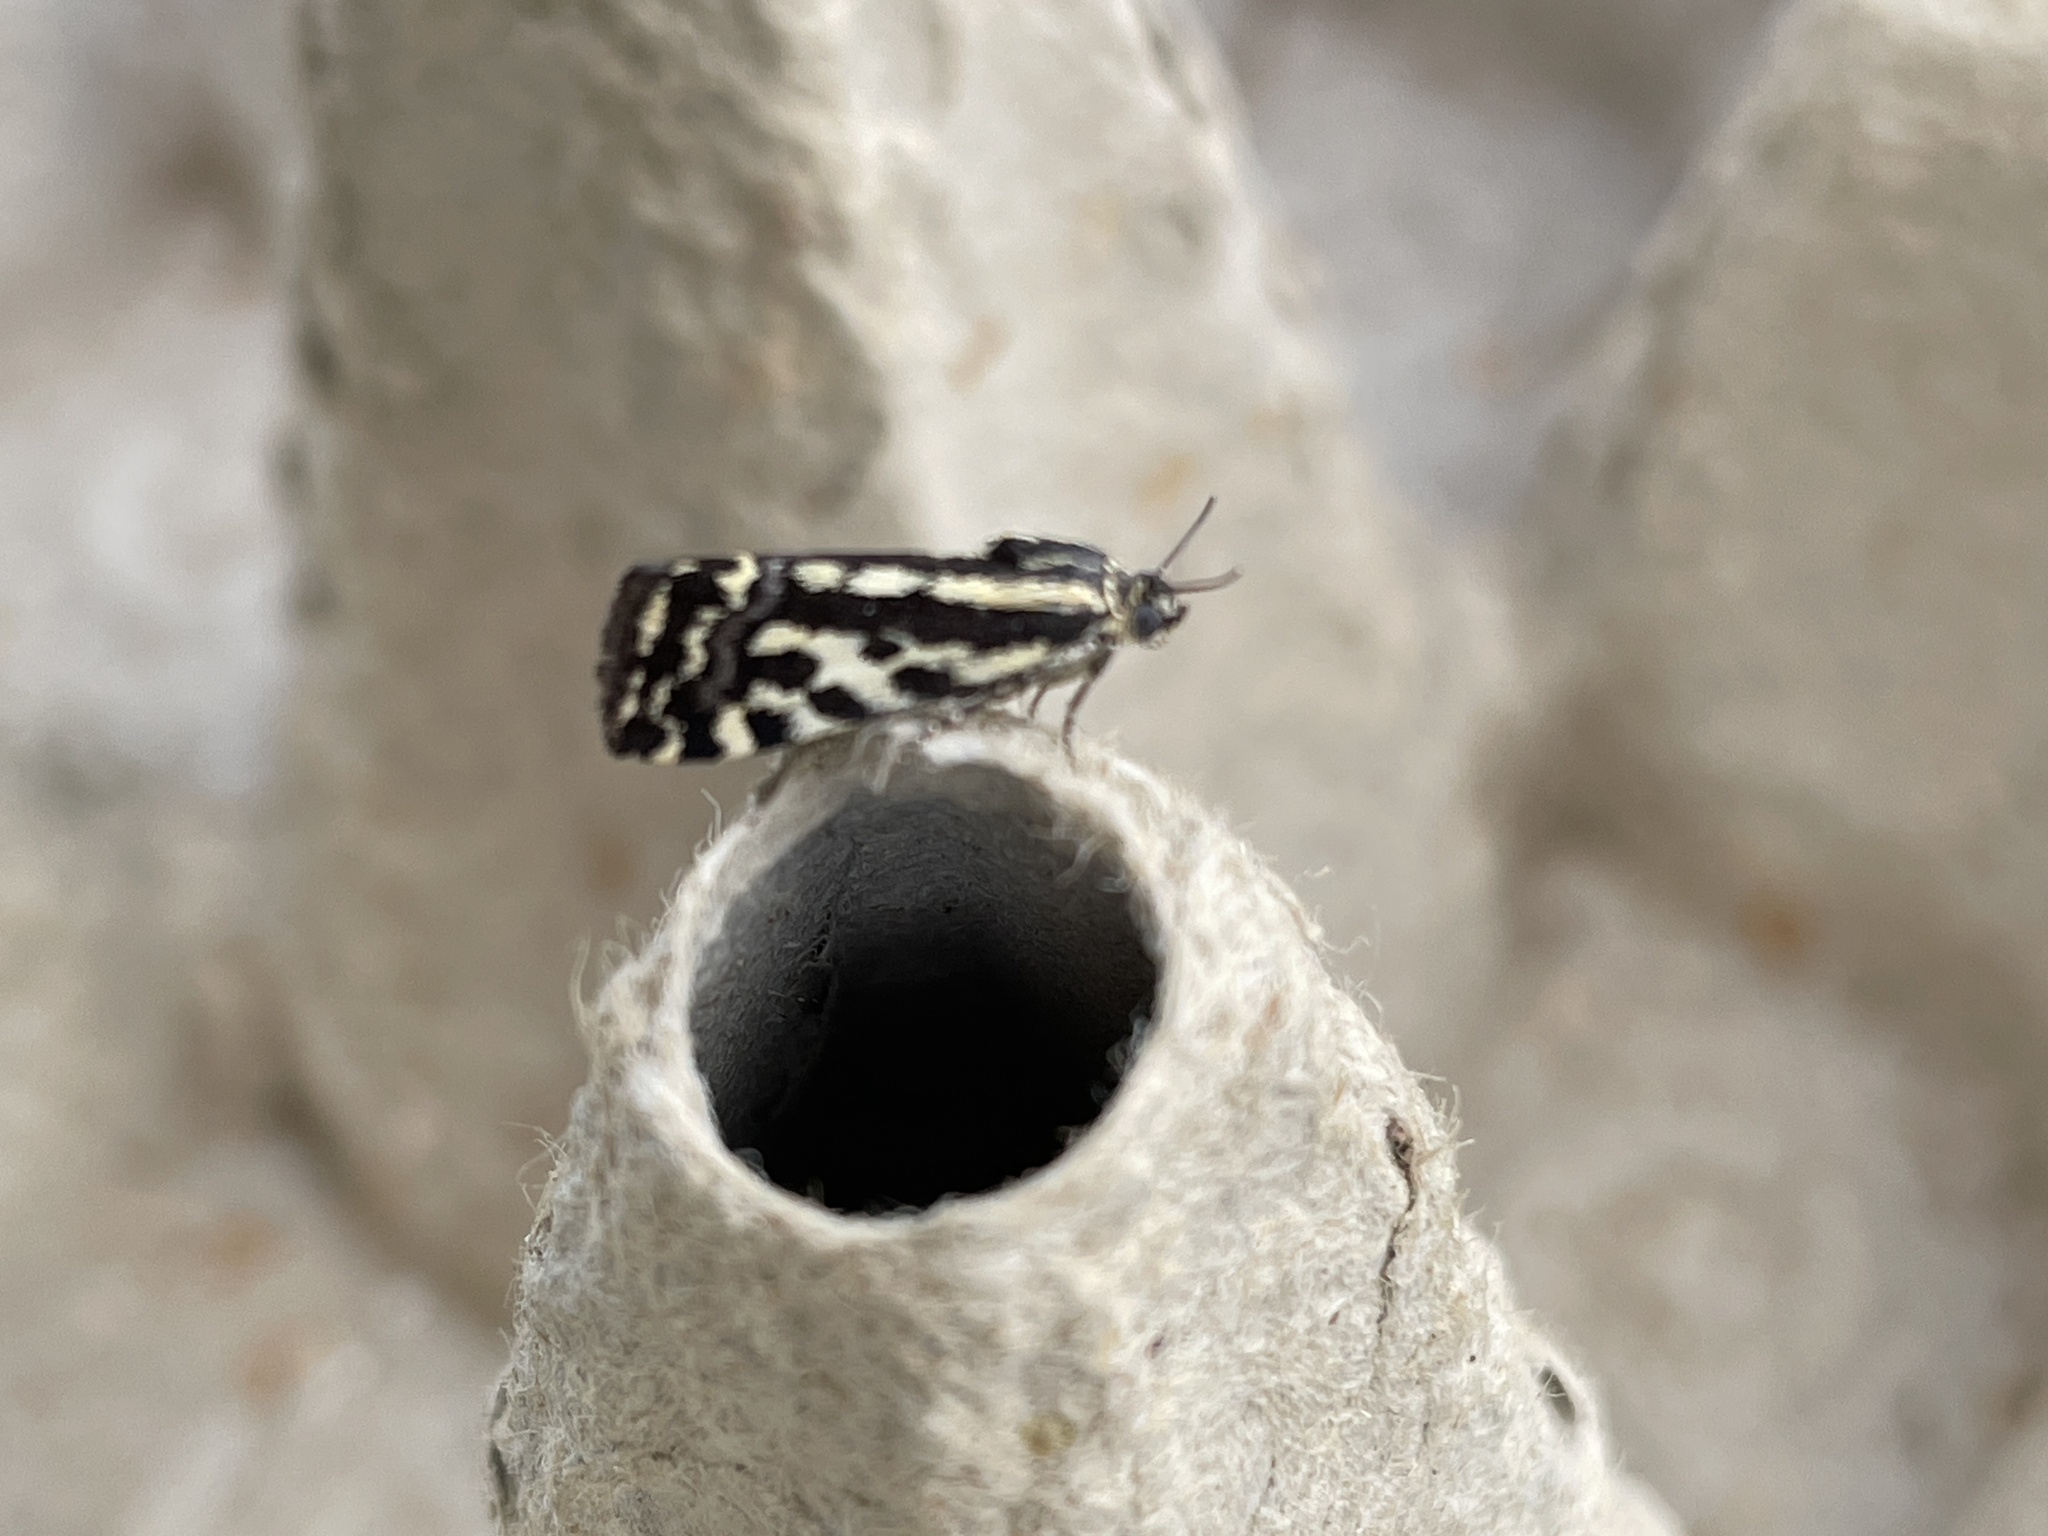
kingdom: Animalia
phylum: Arthropoda
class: Insecta
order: Lepidoptera
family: Noctuidae
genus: Acontia
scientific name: Acontia trabealis
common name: Spotted sulphur
